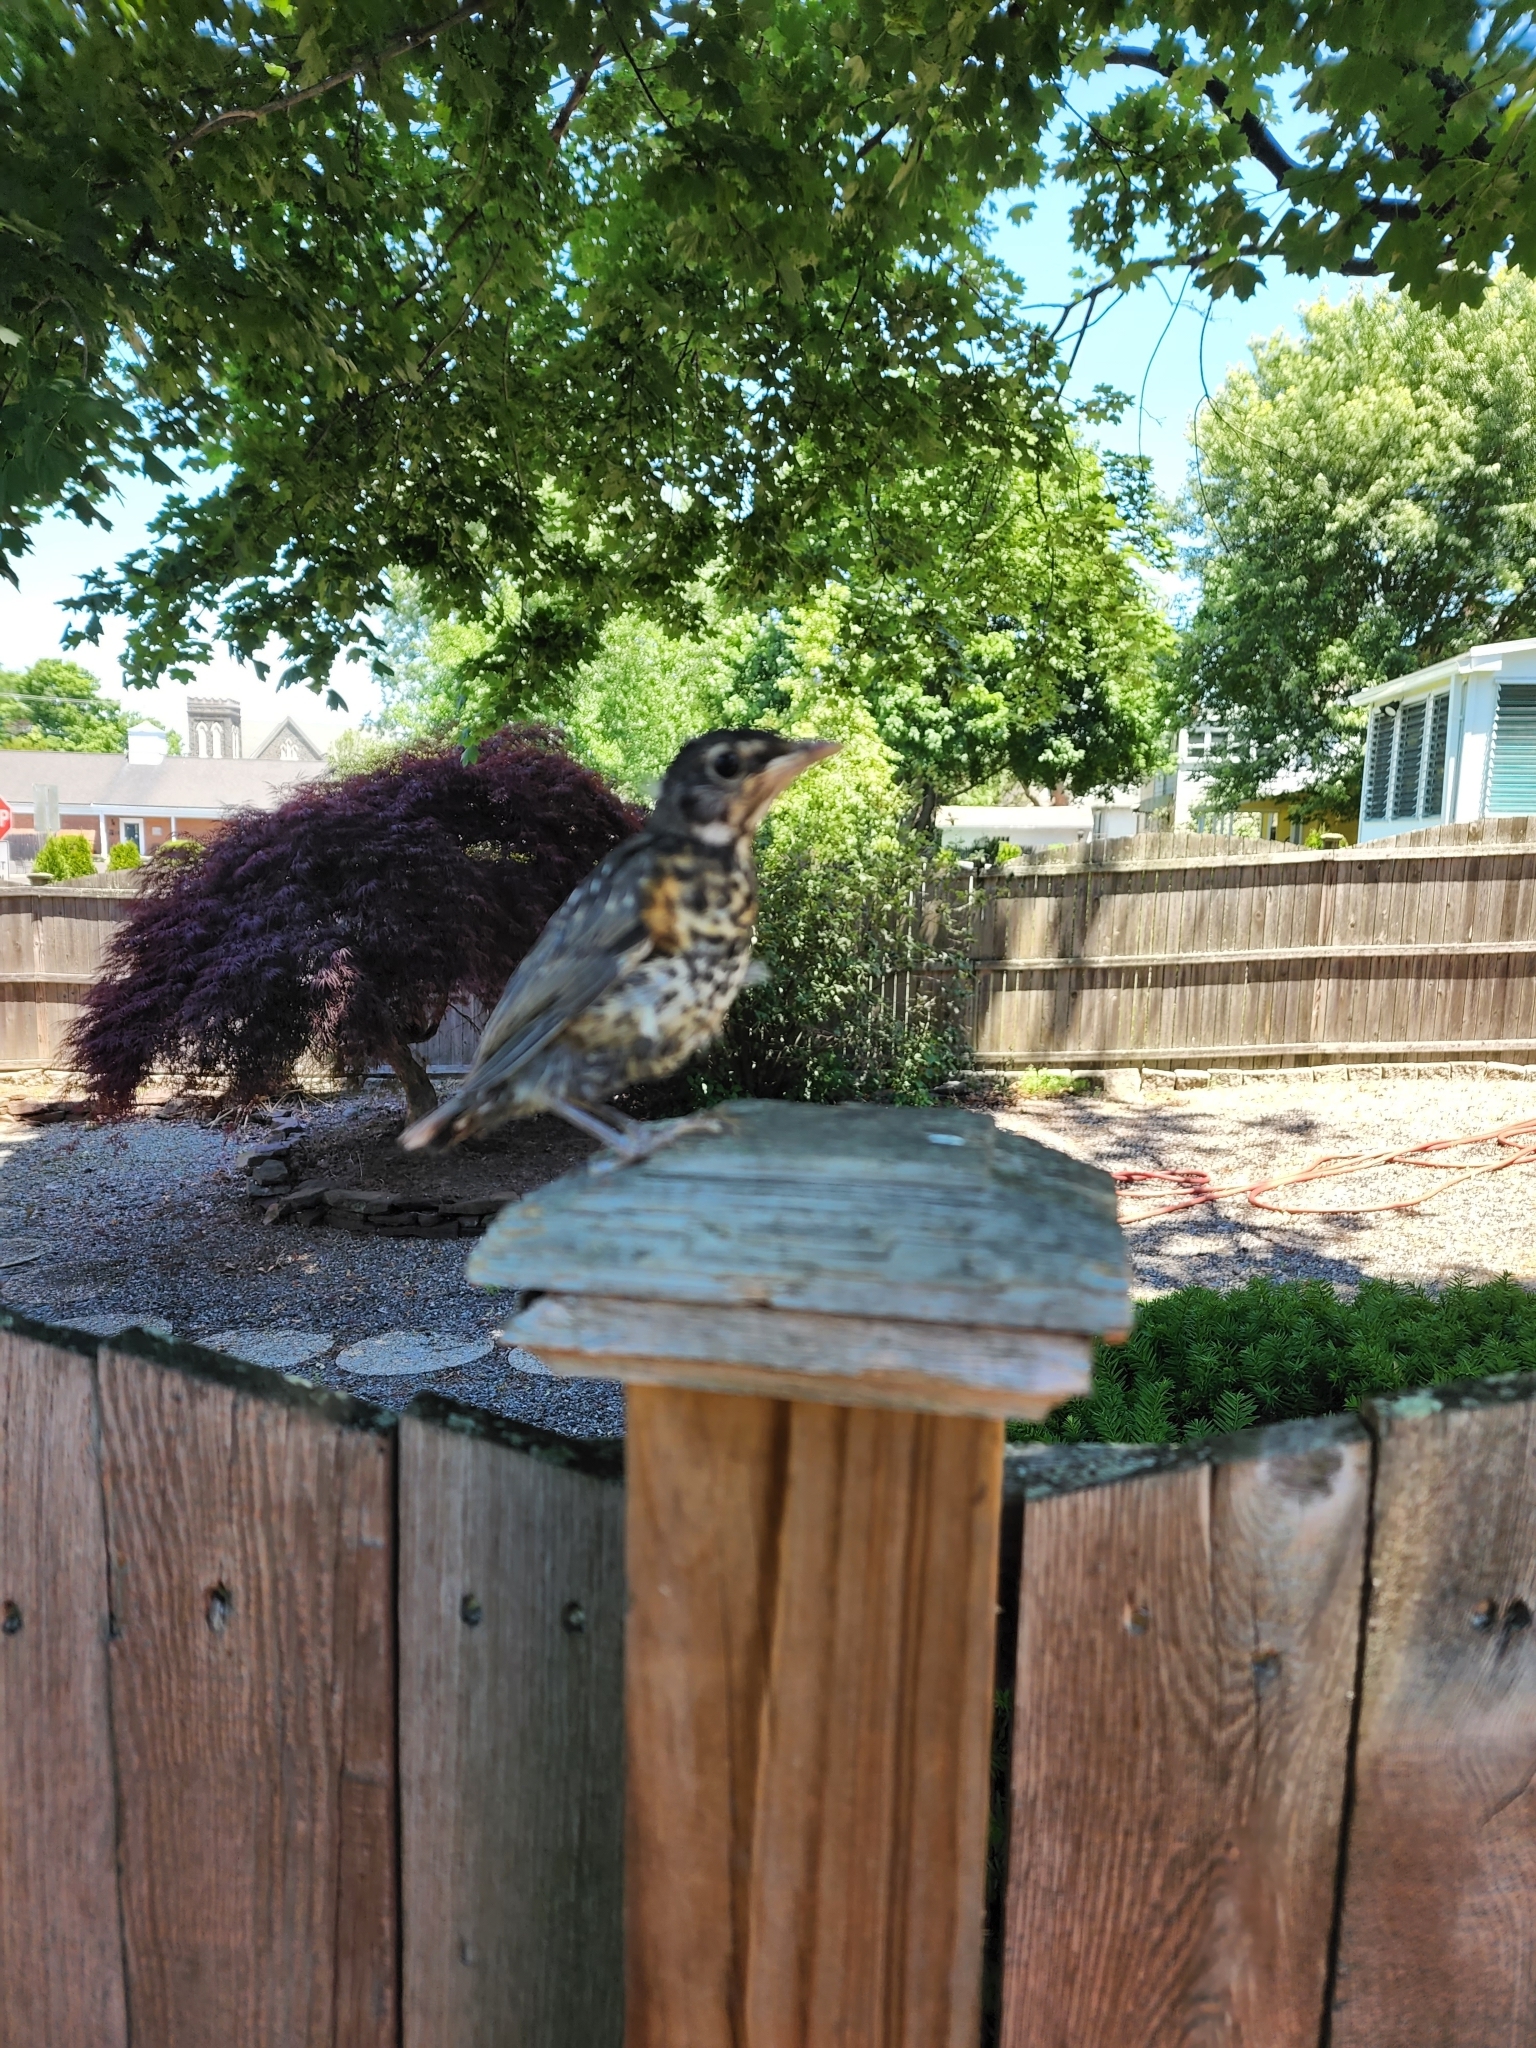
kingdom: Animalia
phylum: Chordata
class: Aves
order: Passeriformes
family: Turdidae
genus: Turdus
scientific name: Turdus migratorius
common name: American robin
